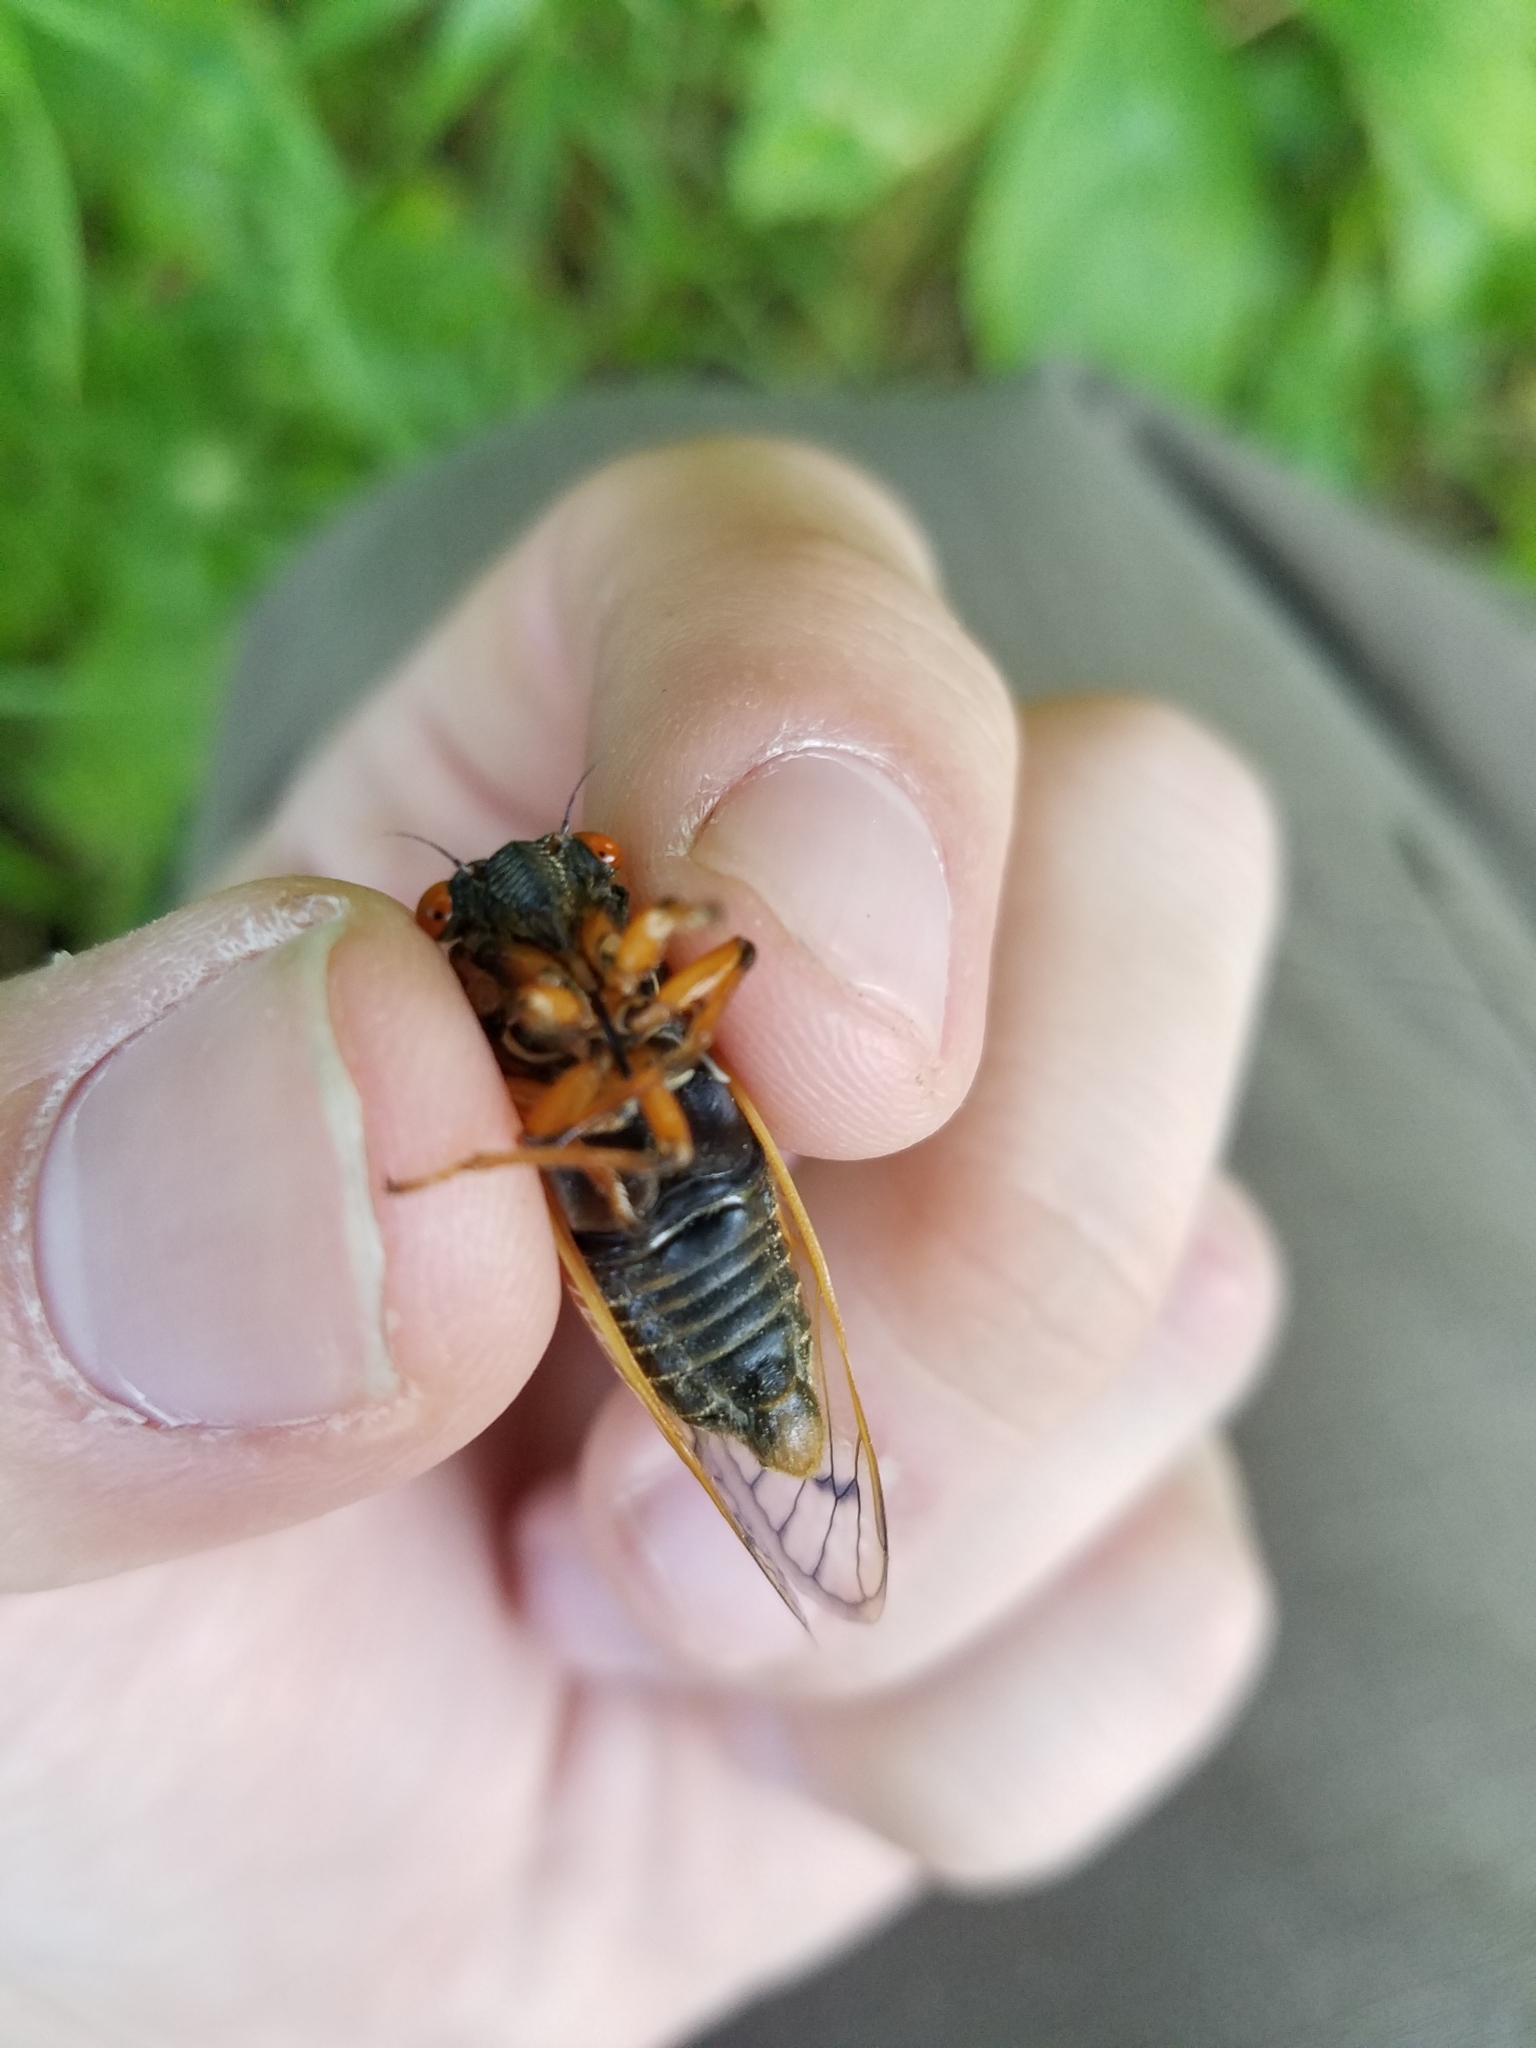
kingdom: Animalia
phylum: Arthropoda
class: Insecta
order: Hemiptera
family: Cicadidae
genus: Magicicada
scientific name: Magicicada cassini
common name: Cassin's 17-year cicada
